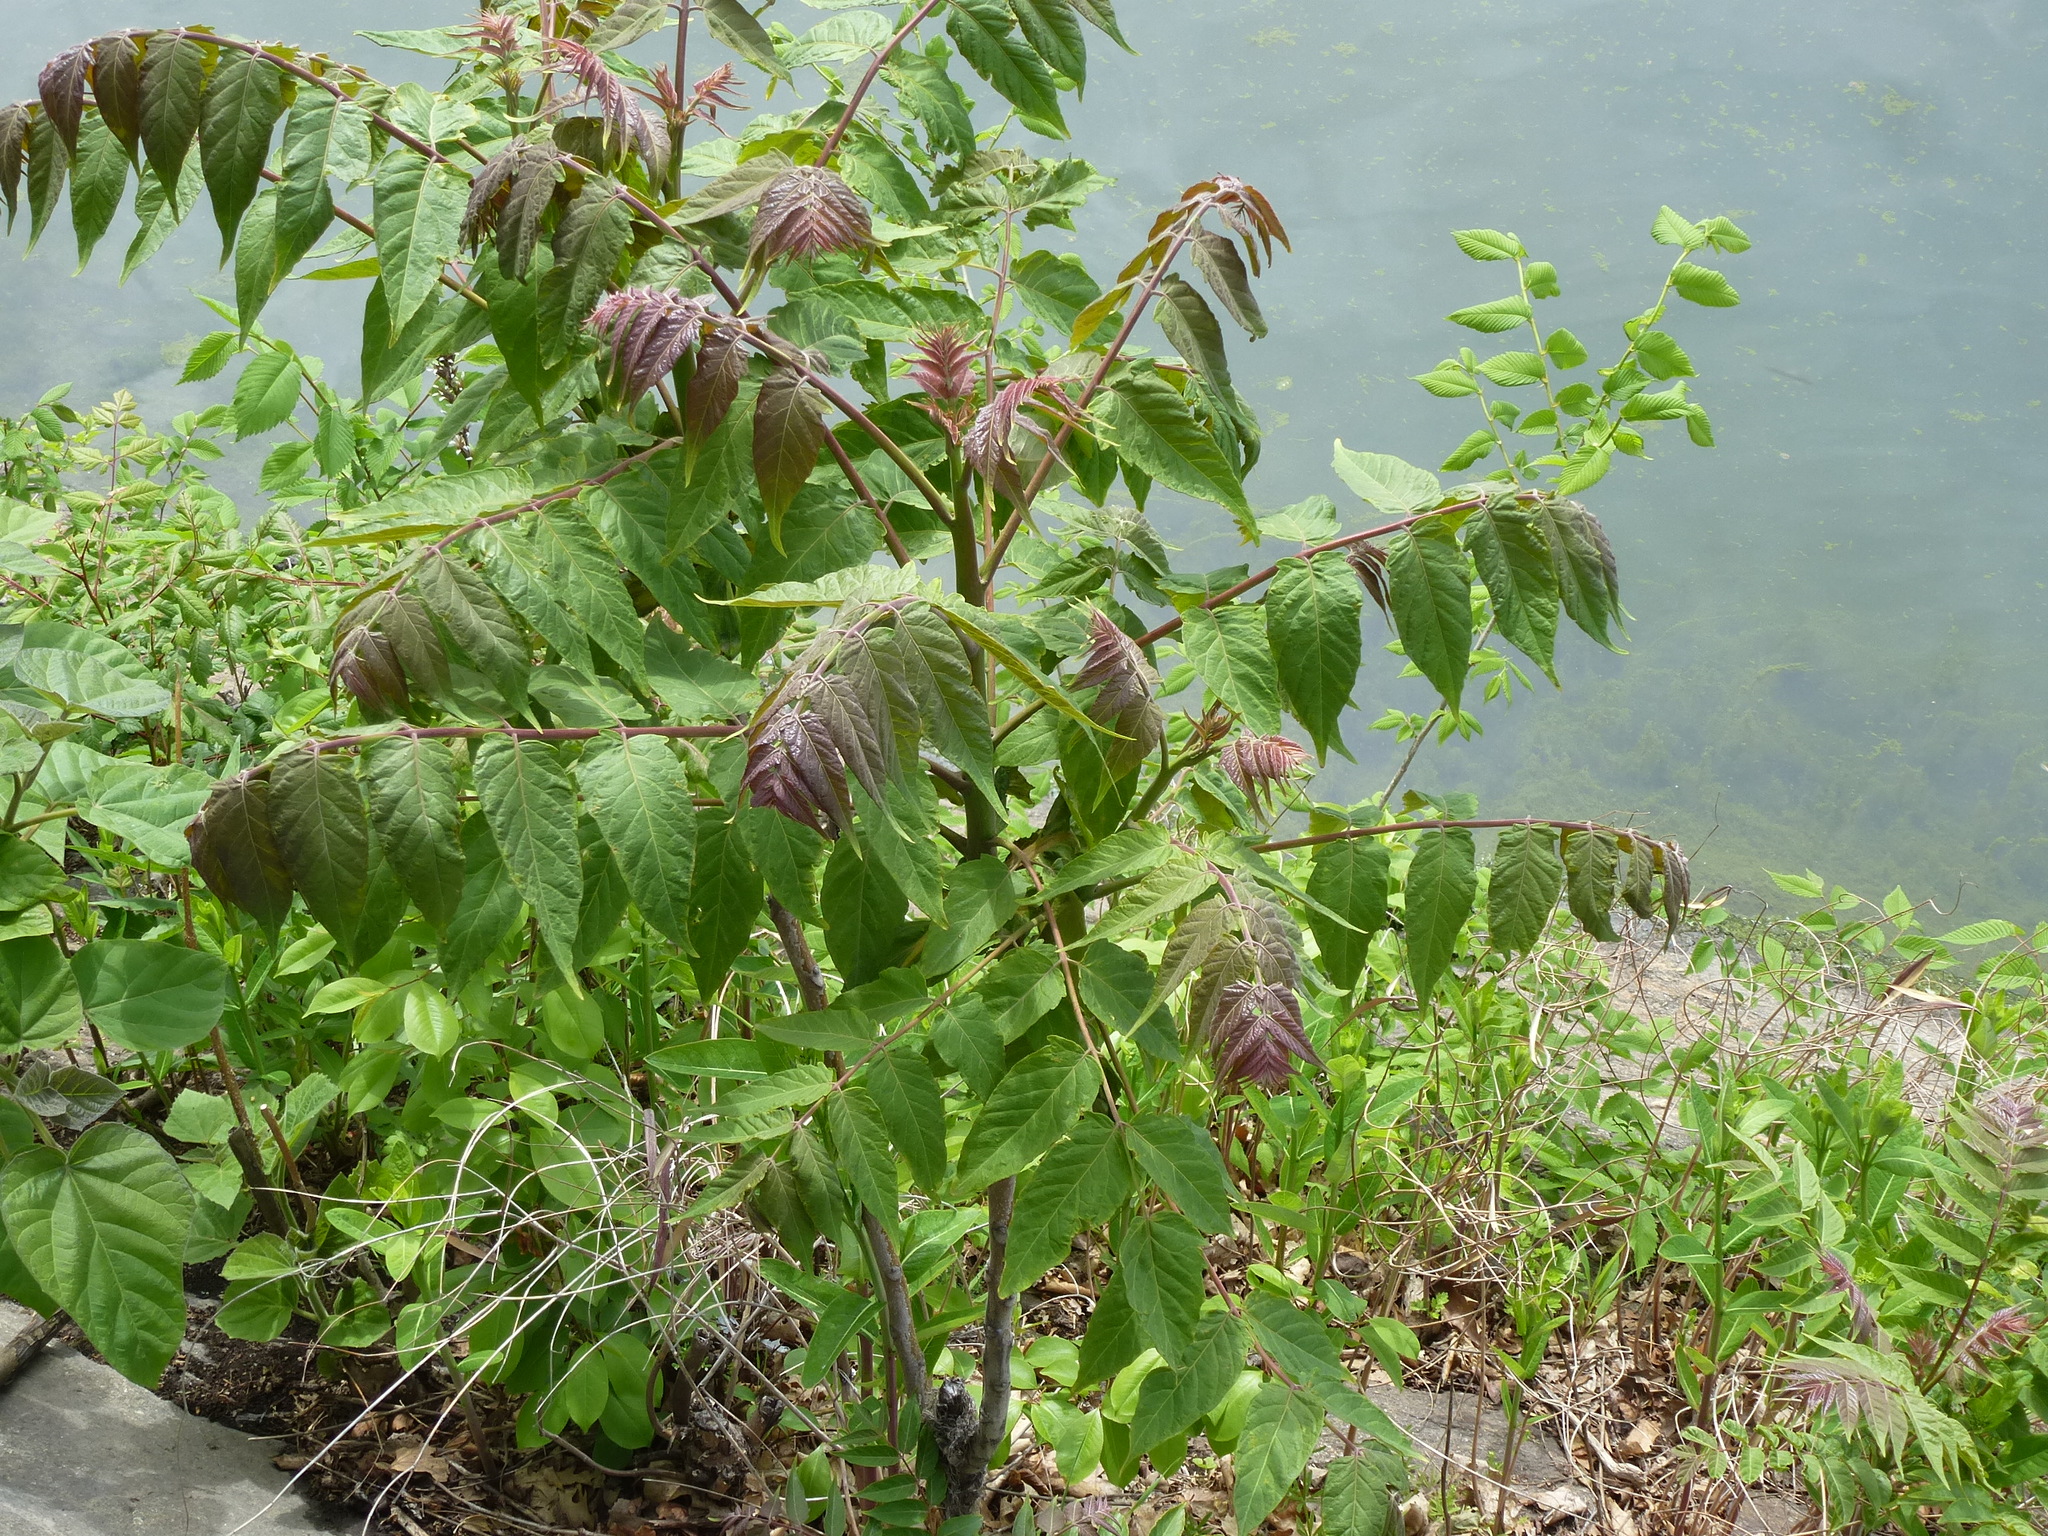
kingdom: Plantae
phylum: Tracheophyta
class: Magnoliopsida
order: Sapindales
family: Simaroubaceae
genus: Ailanthus
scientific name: Ailanthus altissima
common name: Tree-of-heaven
